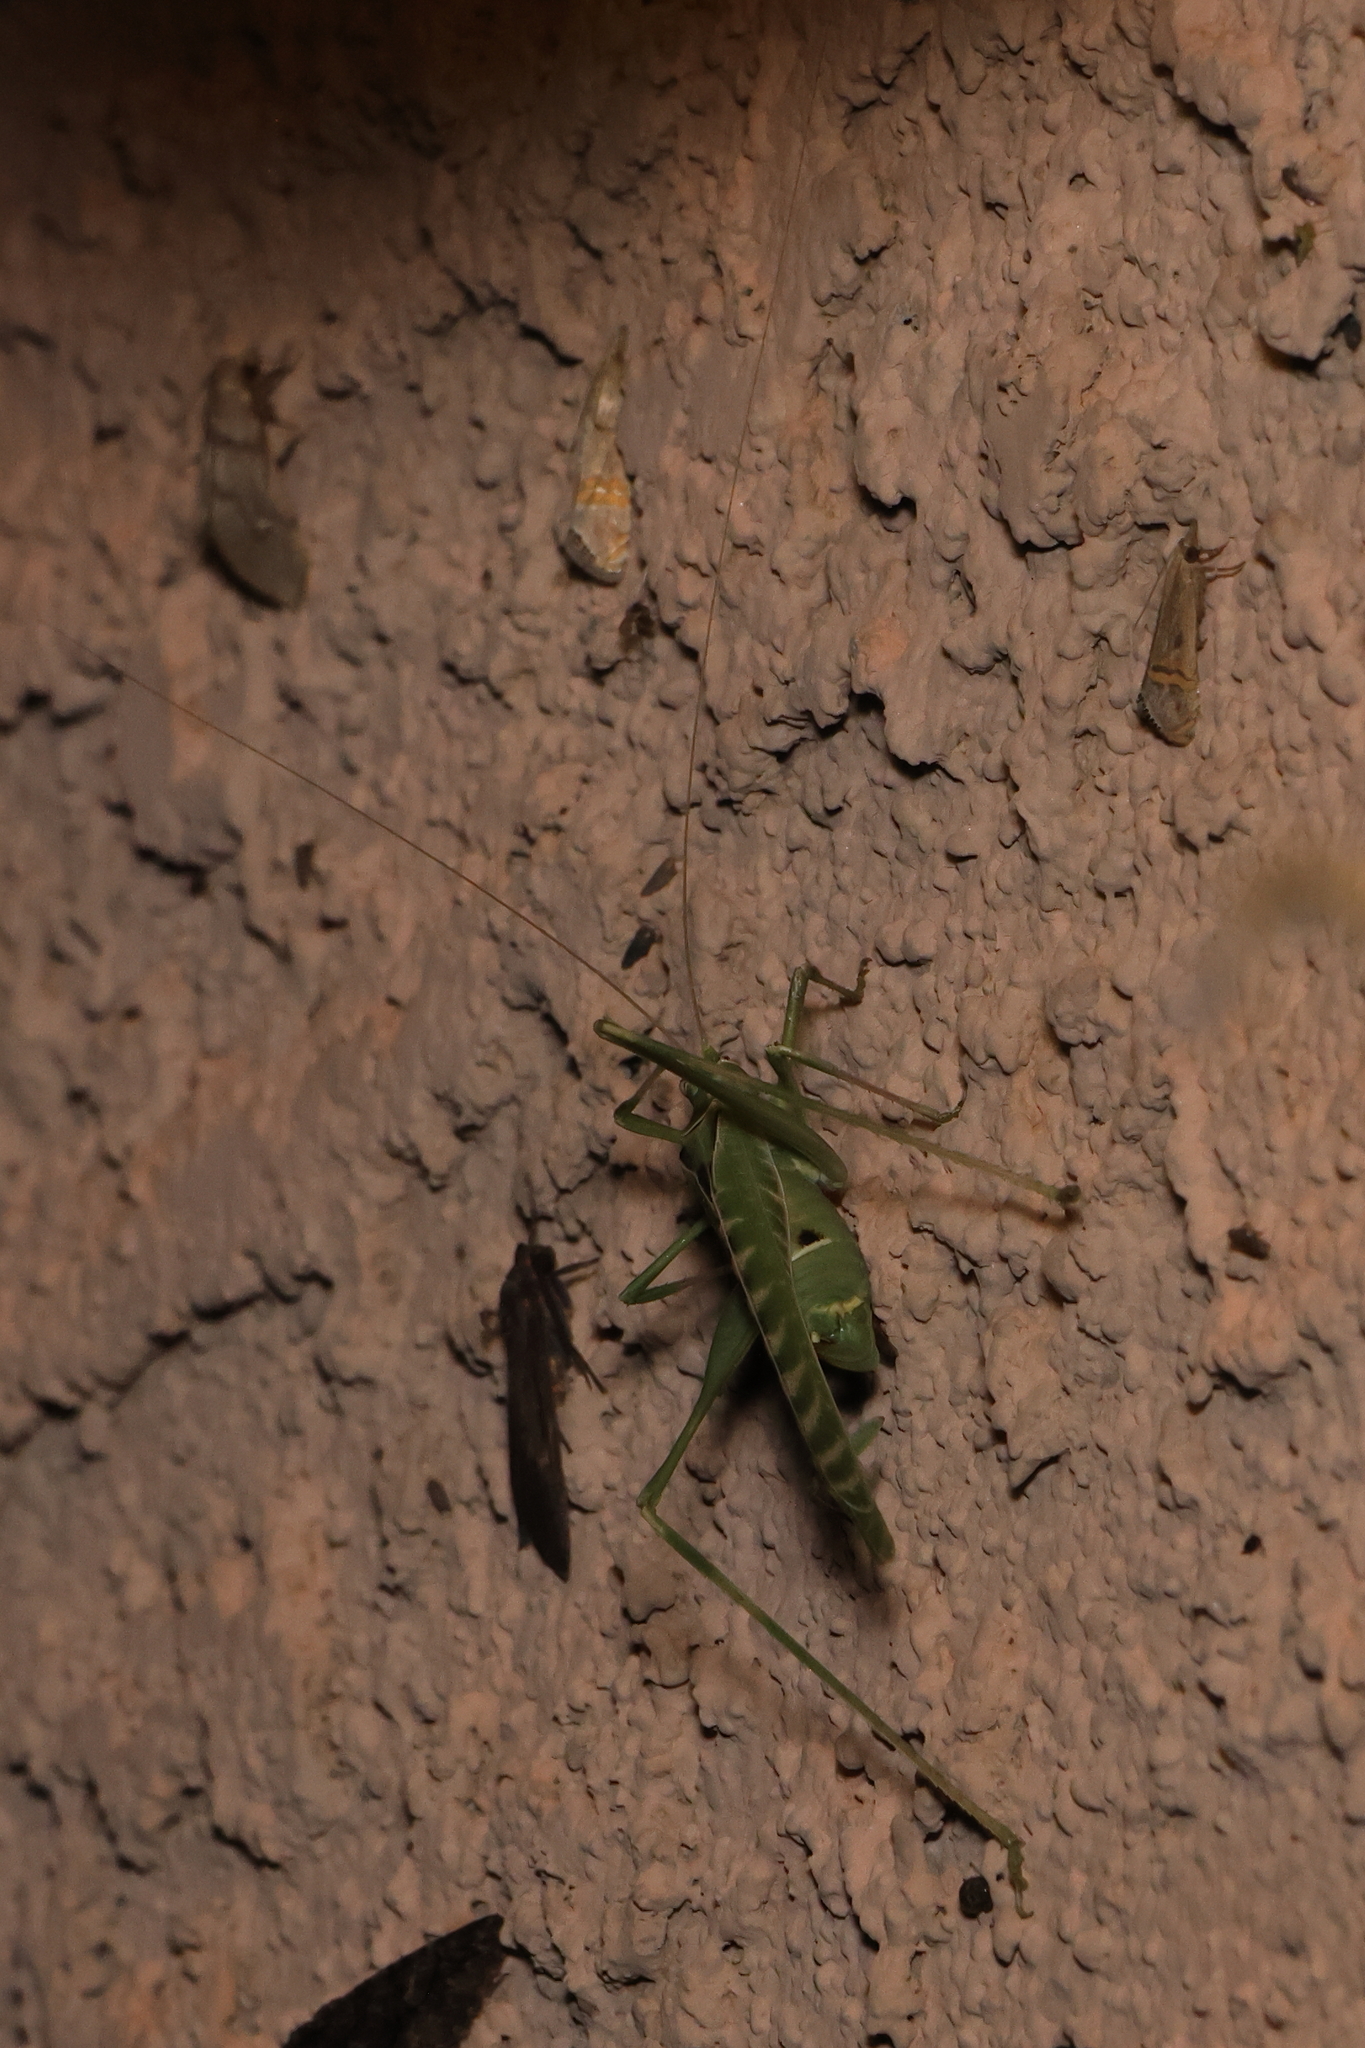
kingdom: Animalia
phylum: Arthropoda
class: Insecta
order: Orthoptera
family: Tettigoniidae
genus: Insara
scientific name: Insara elegans
